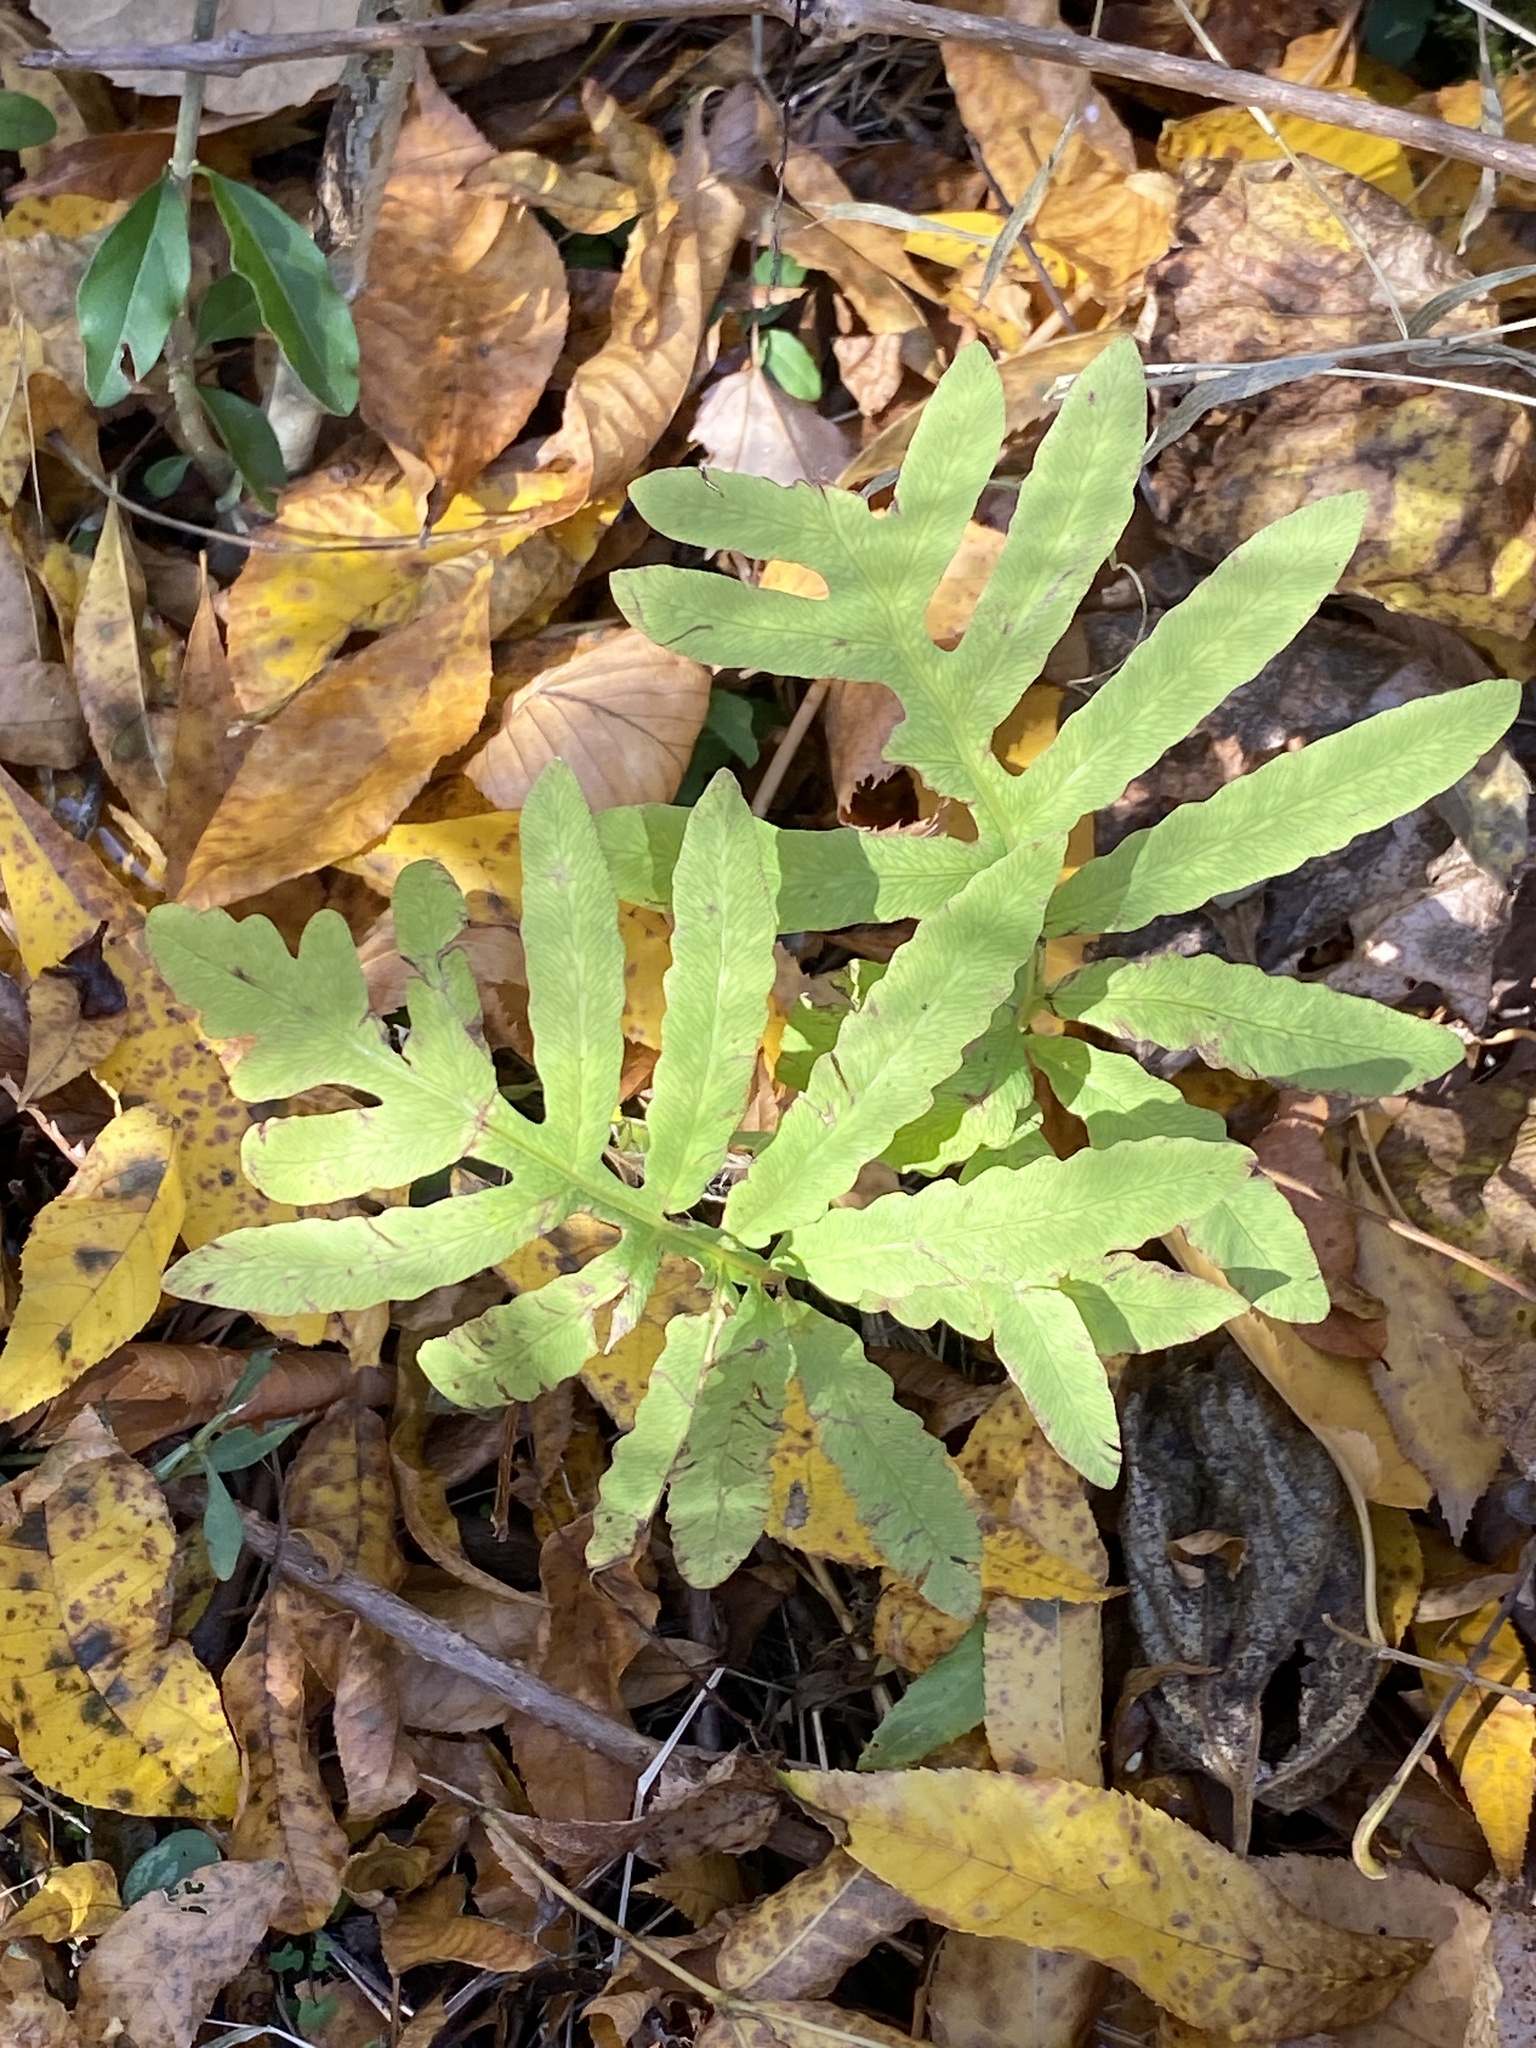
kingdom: Plantae
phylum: Tracheophyta
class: Polypodiopsida
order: Polypodiales
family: Onocleaceae
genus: Onoclea
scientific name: Onoclea sensibilis
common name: Sensitive fern
